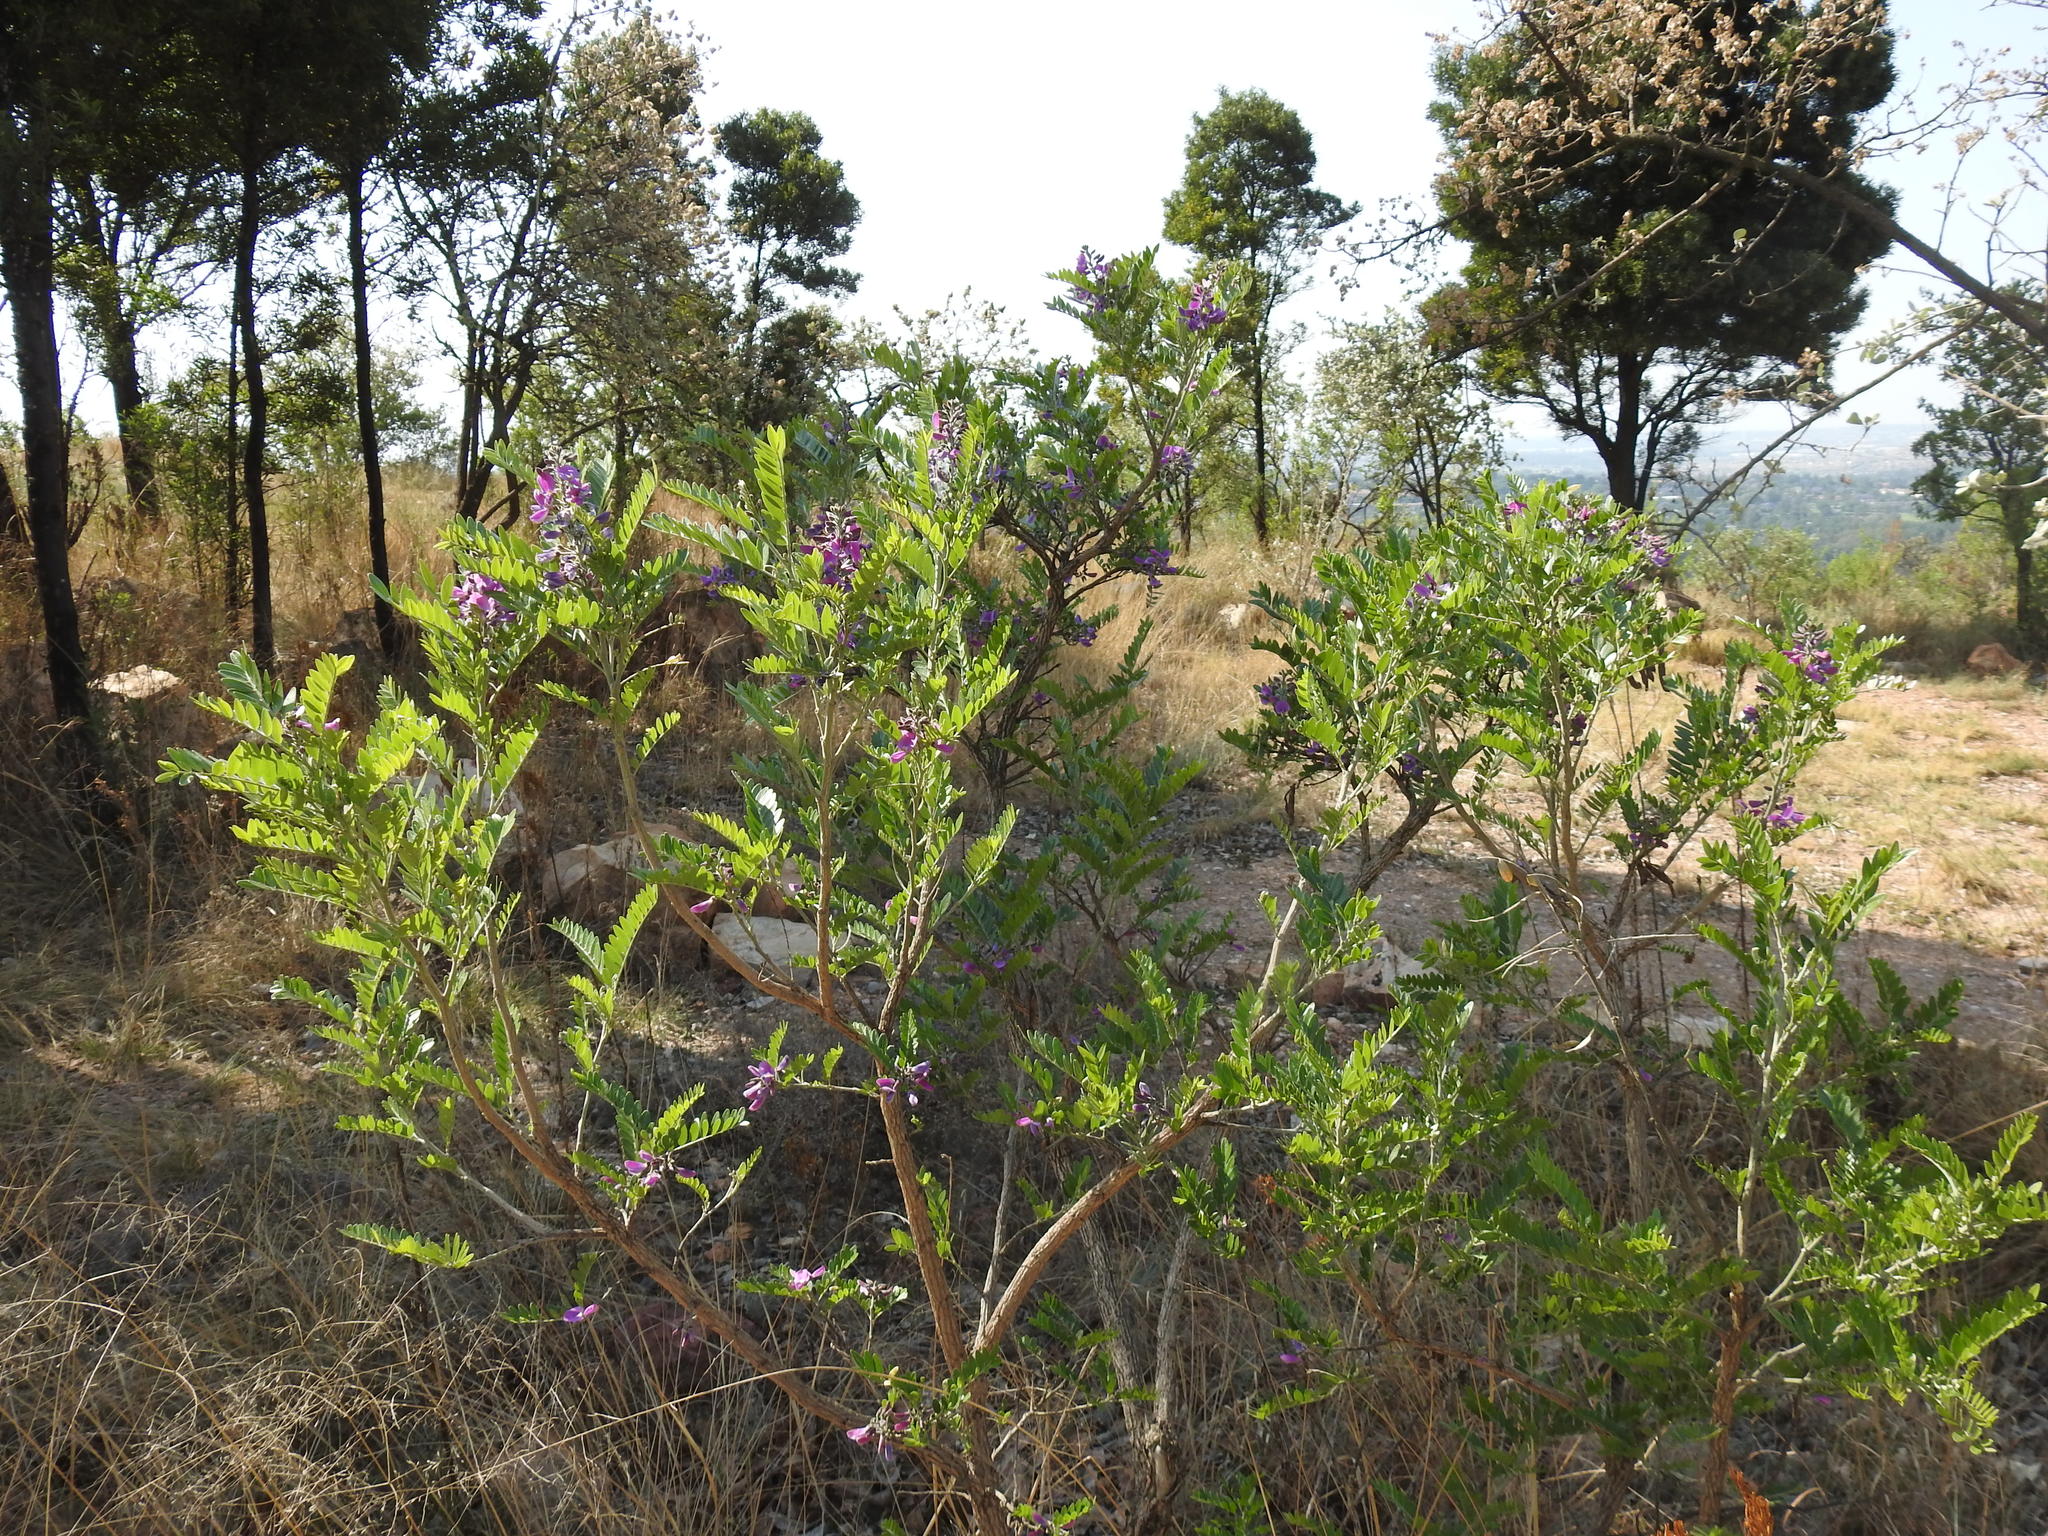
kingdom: Plantae
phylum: Tracheophyta
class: Magnoliopsida
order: Fabales
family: Fabaceae
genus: Mundulea
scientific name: Mundulea sericea
